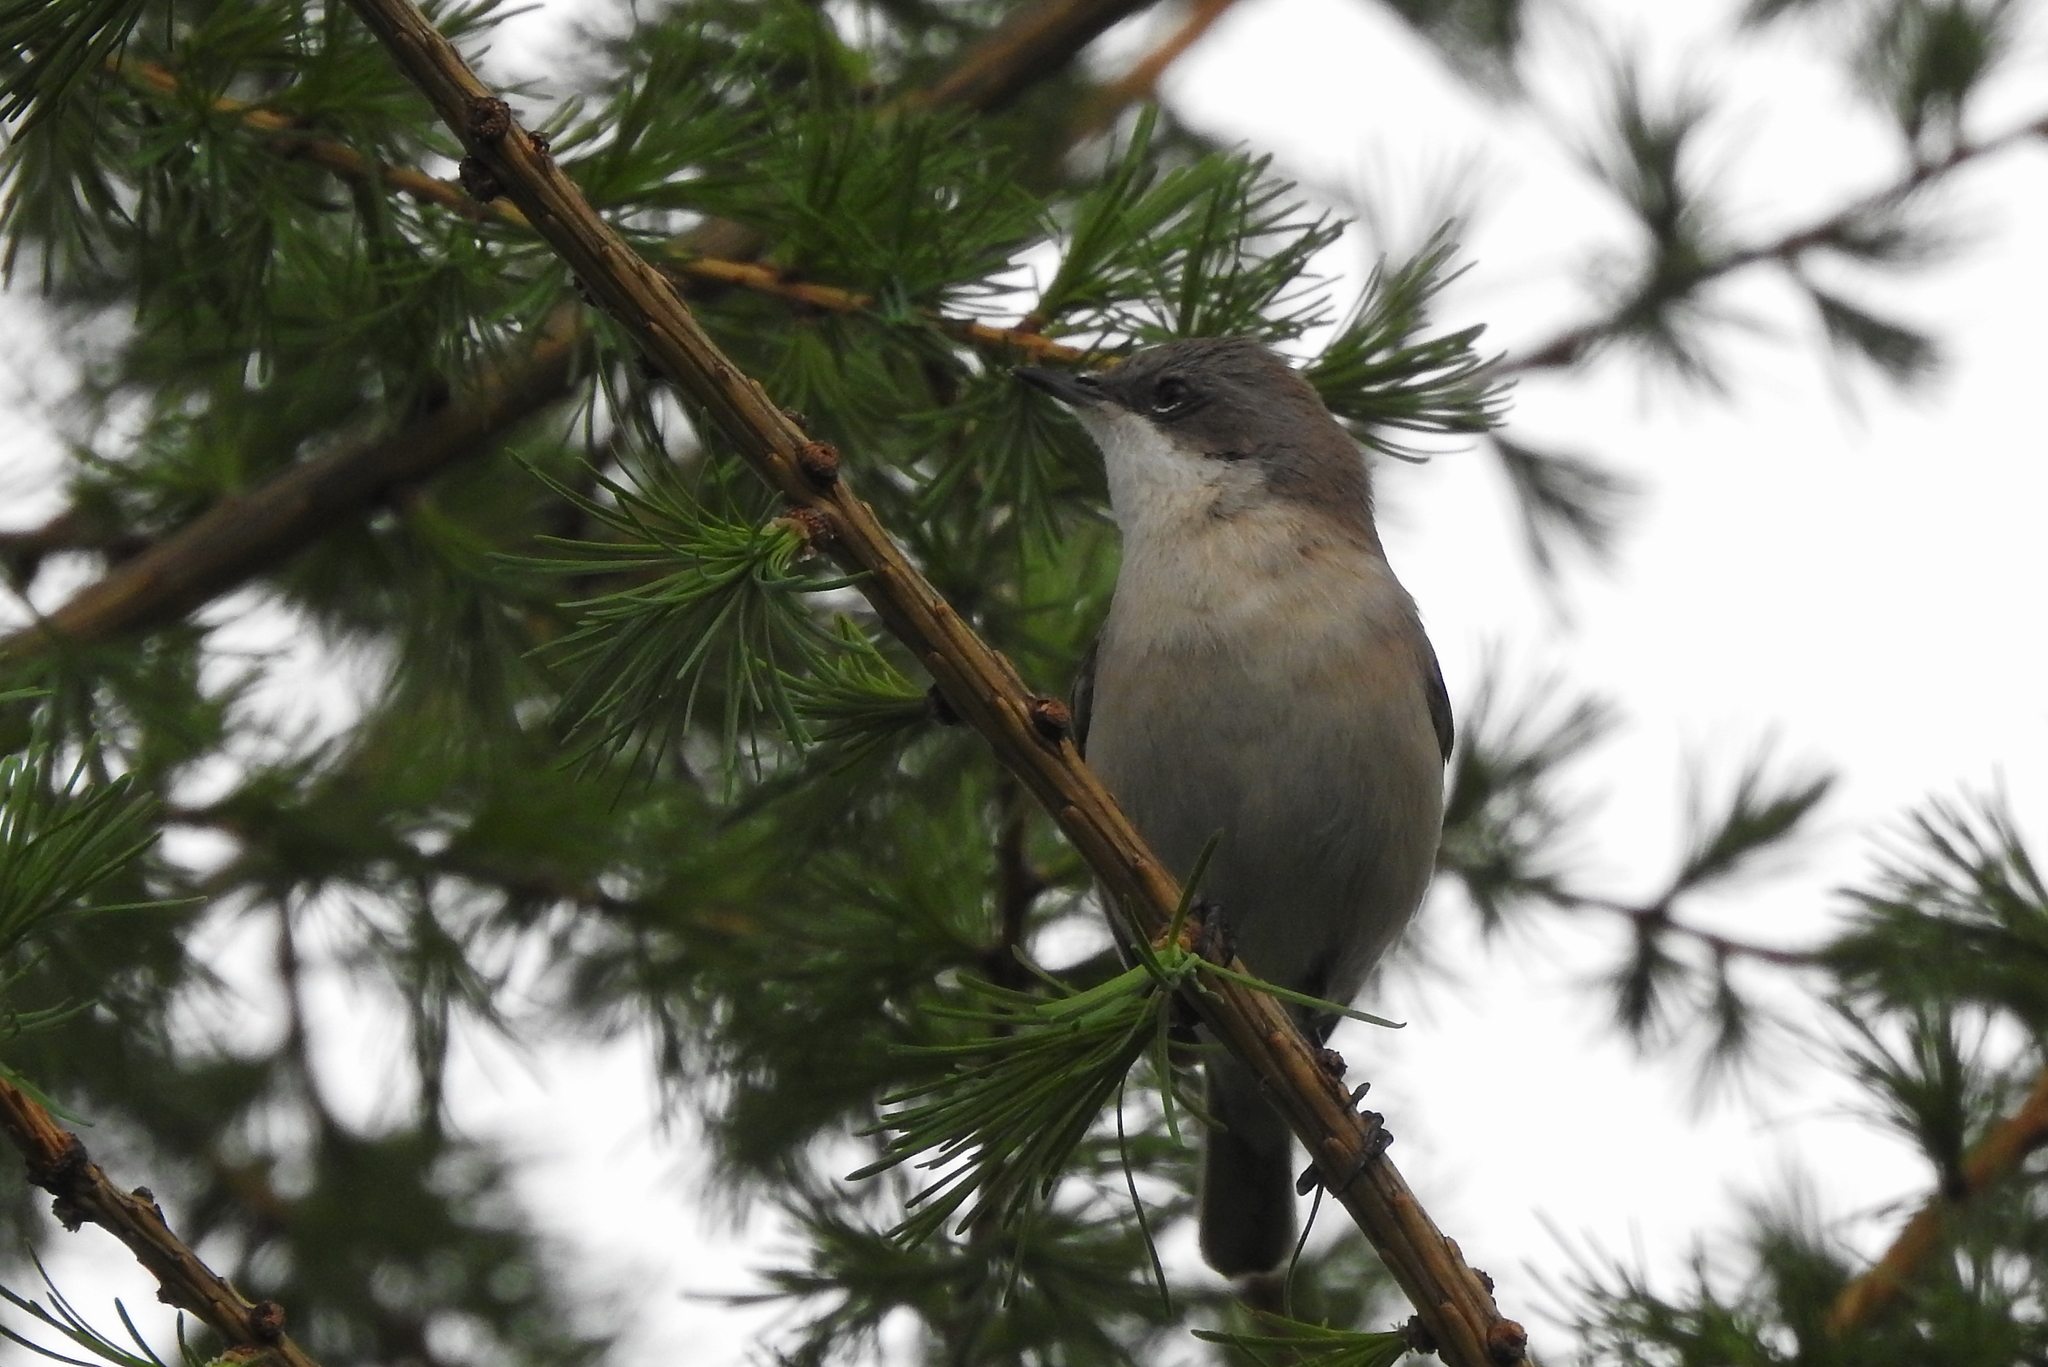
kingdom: Animalia
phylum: Chordata
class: Aves
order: Passeriformes
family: Sylviidae
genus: Sylvia
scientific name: Sylvia curruca
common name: Lesser whitethroat
